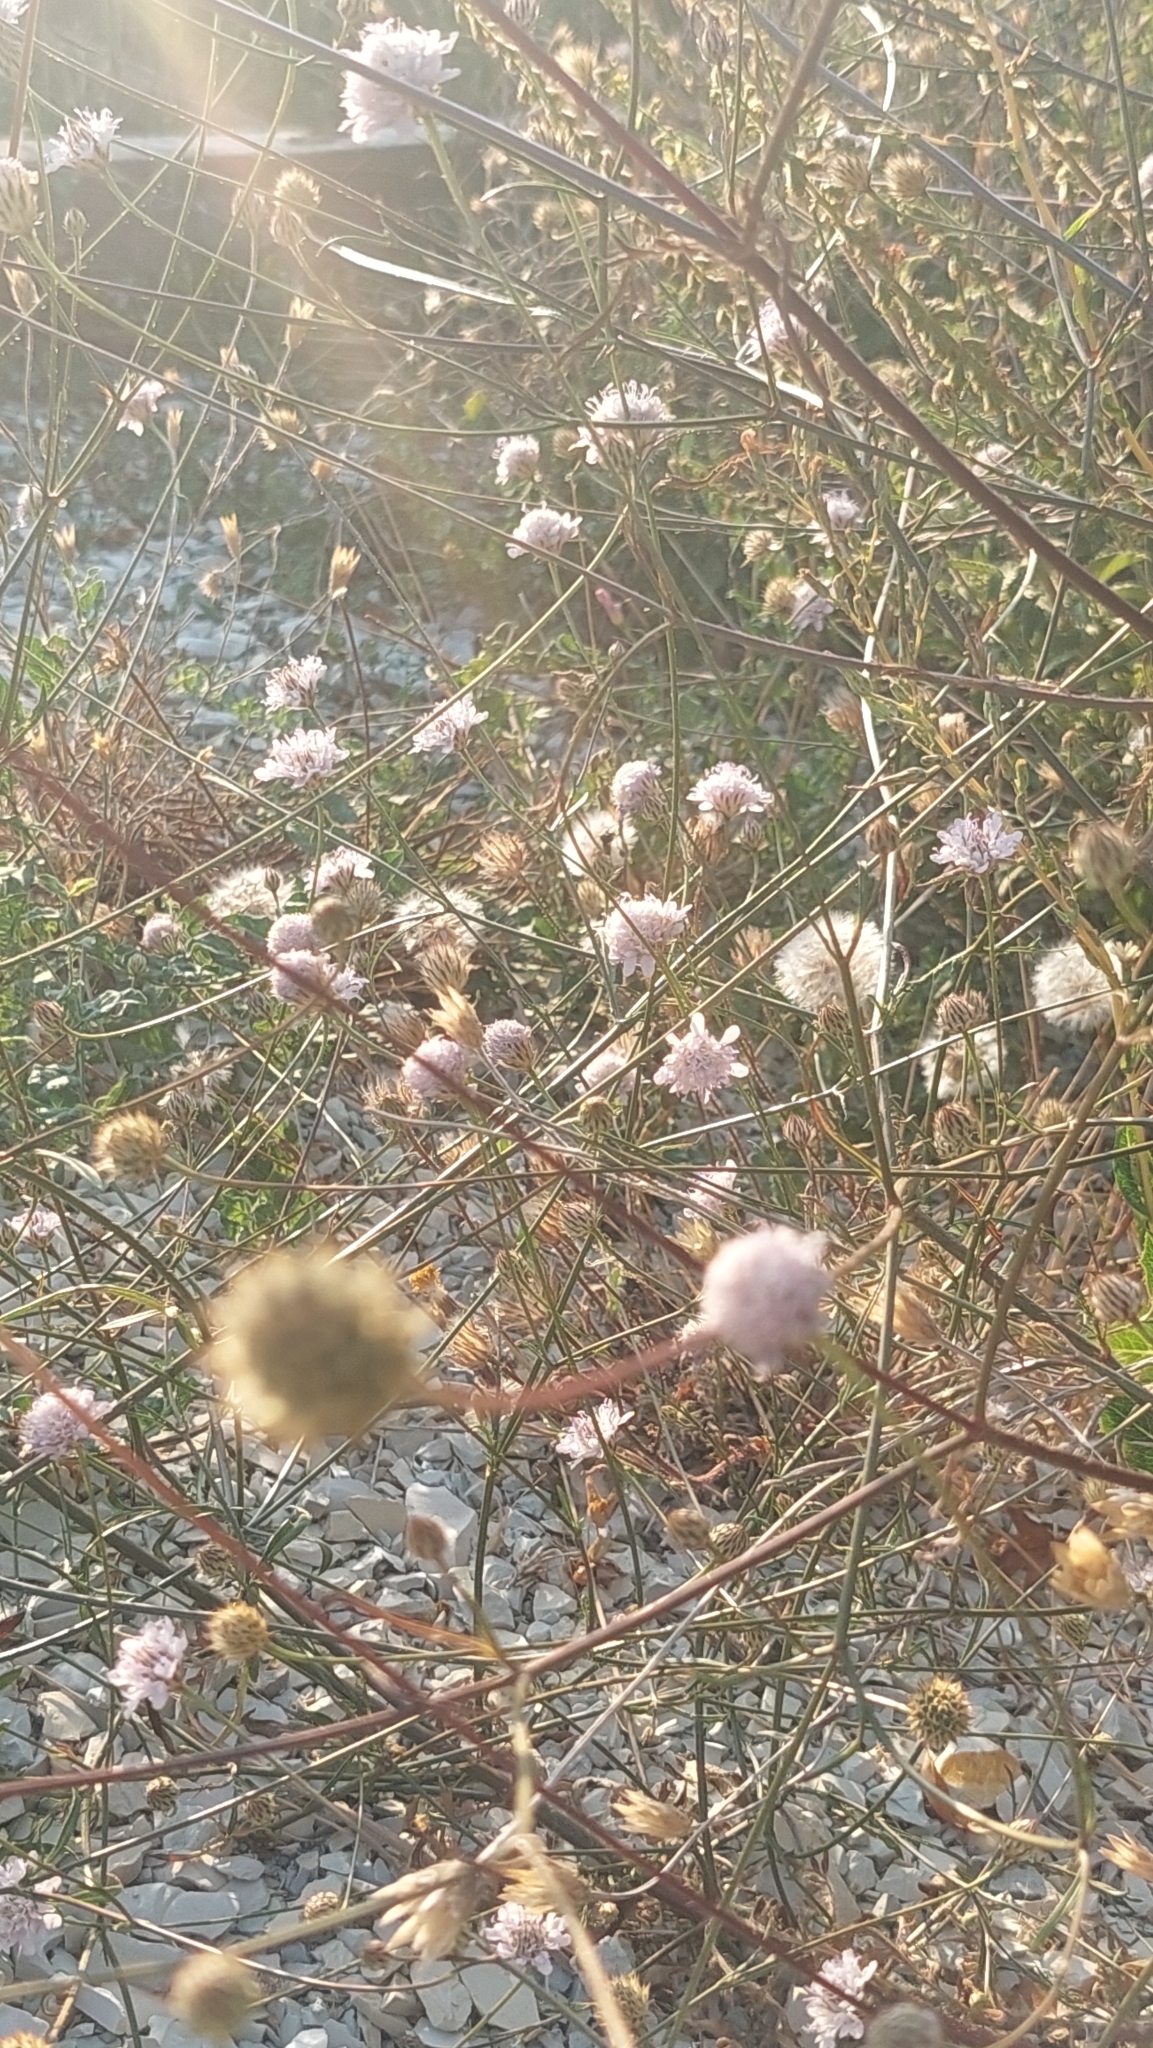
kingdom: Plantae
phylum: Tracheophyta
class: Magnoliopsida
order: Dipsacales
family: Caprifoliaceae
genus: Cephalaria
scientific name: Cephalaria transsylvanica
